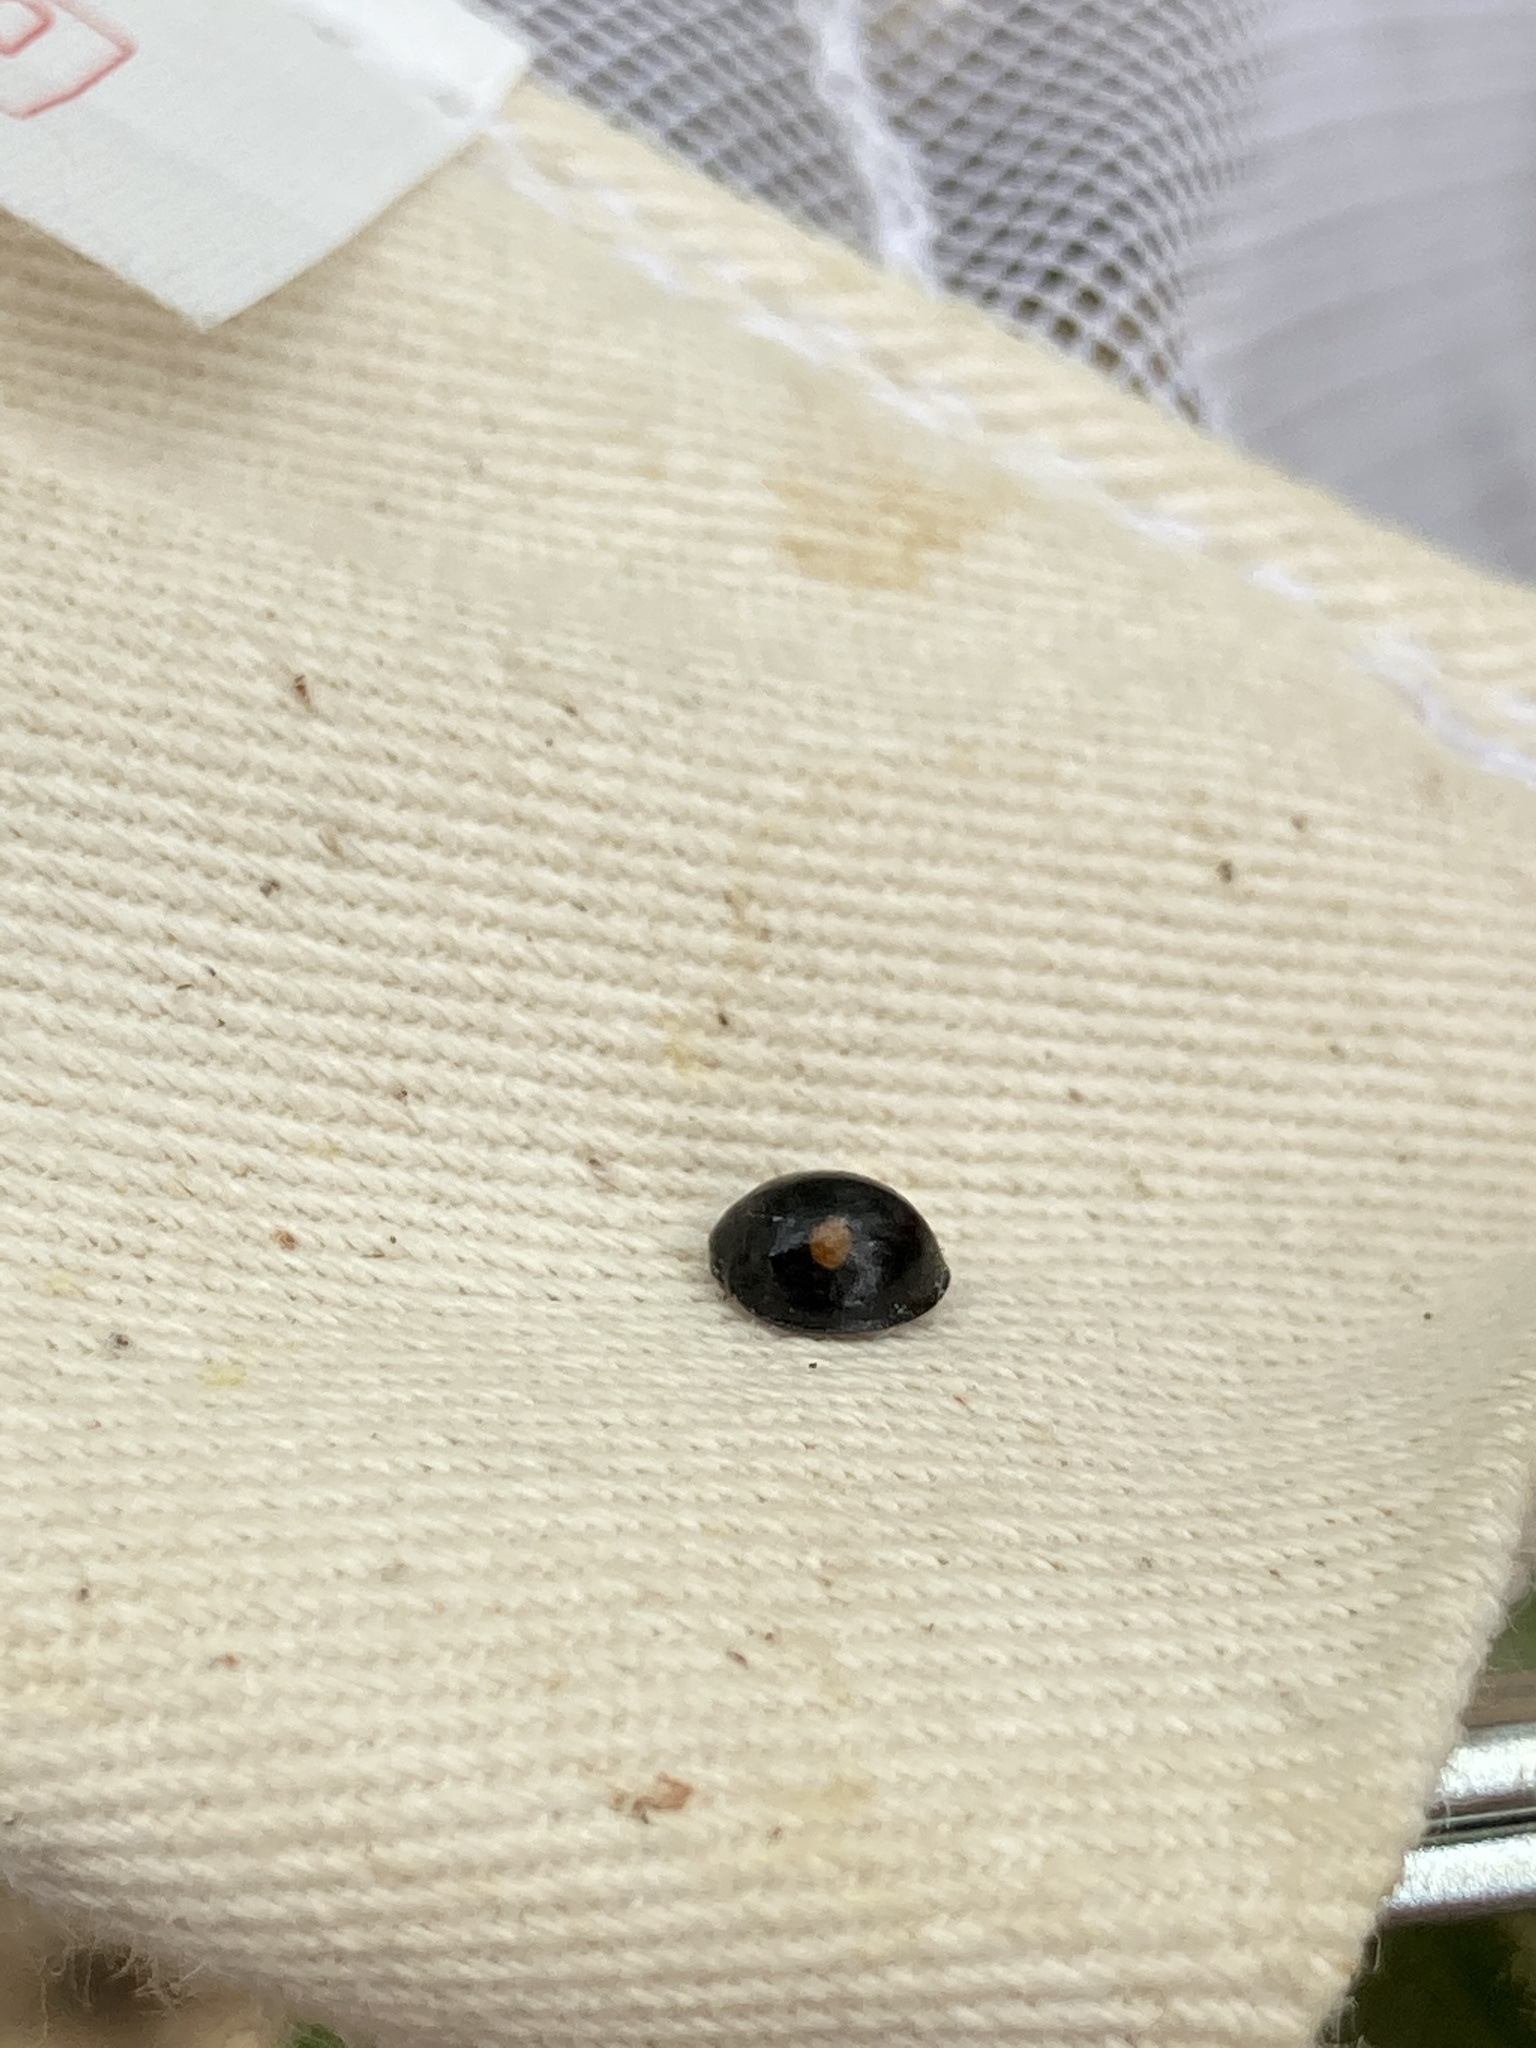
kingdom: Animalia
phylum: Arthropoda
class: Insecta
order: Coleoptera
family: Coccinellidae
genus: Chilocorus
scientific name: Chilocorus stigma
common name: Twicestabbed lady beetle
